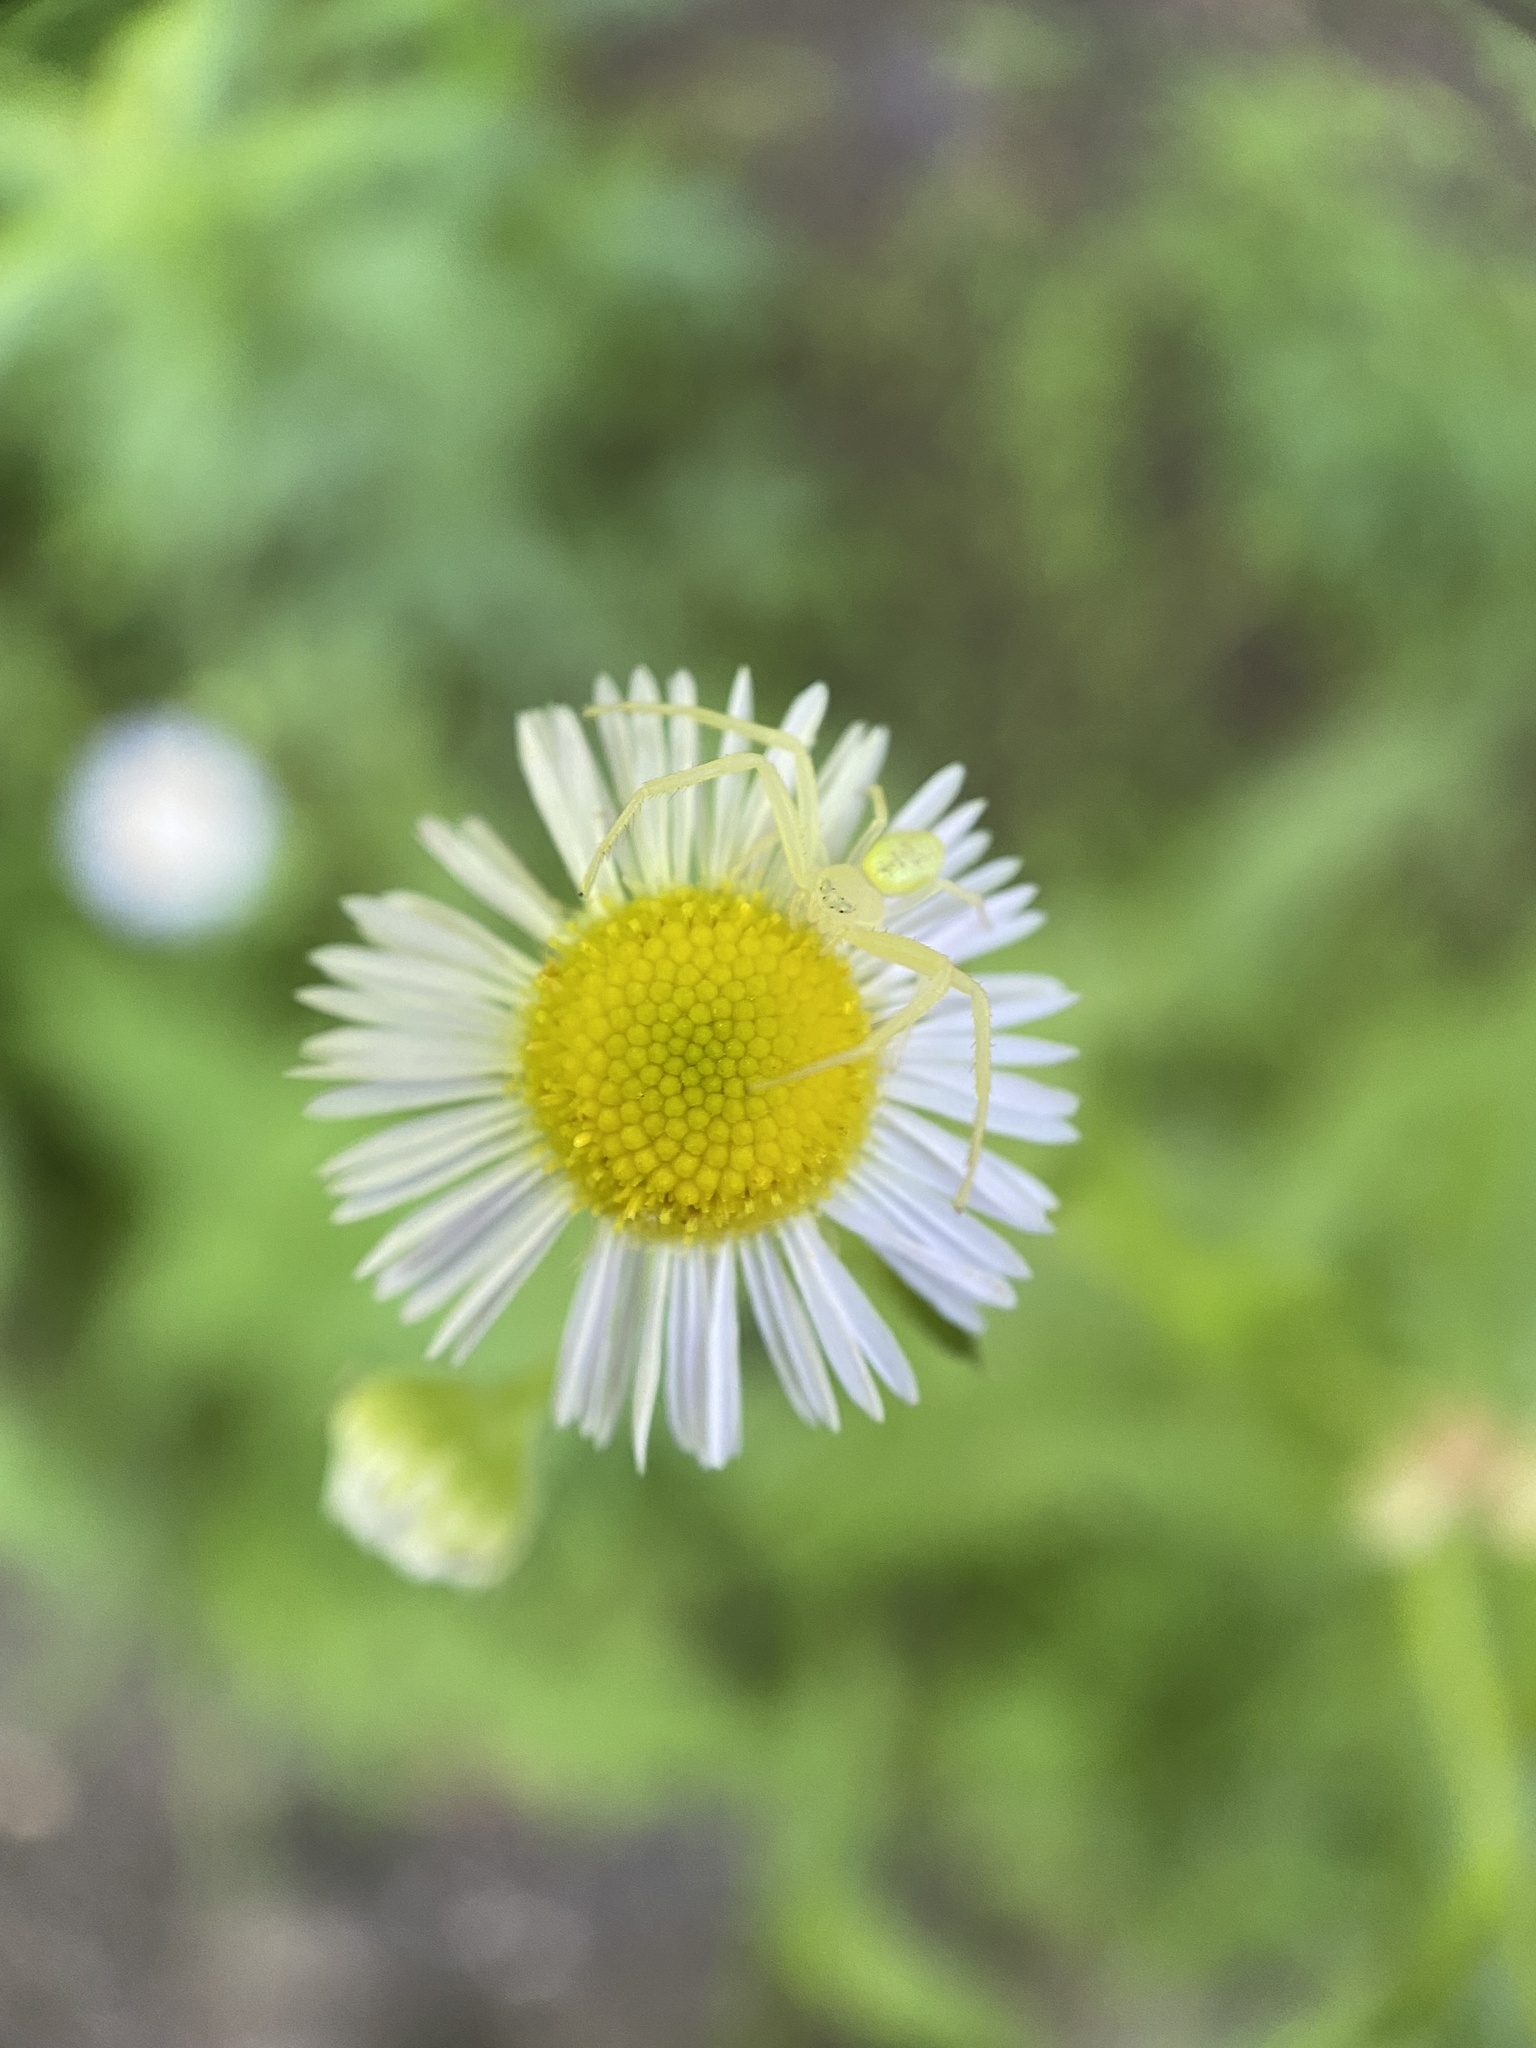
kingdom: Animalia
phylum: Arthropoda
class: Arachnida
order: Araneae
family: Thomisidae
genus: Misumessus
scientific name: Misumessus oblongus
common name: American green crab spider
